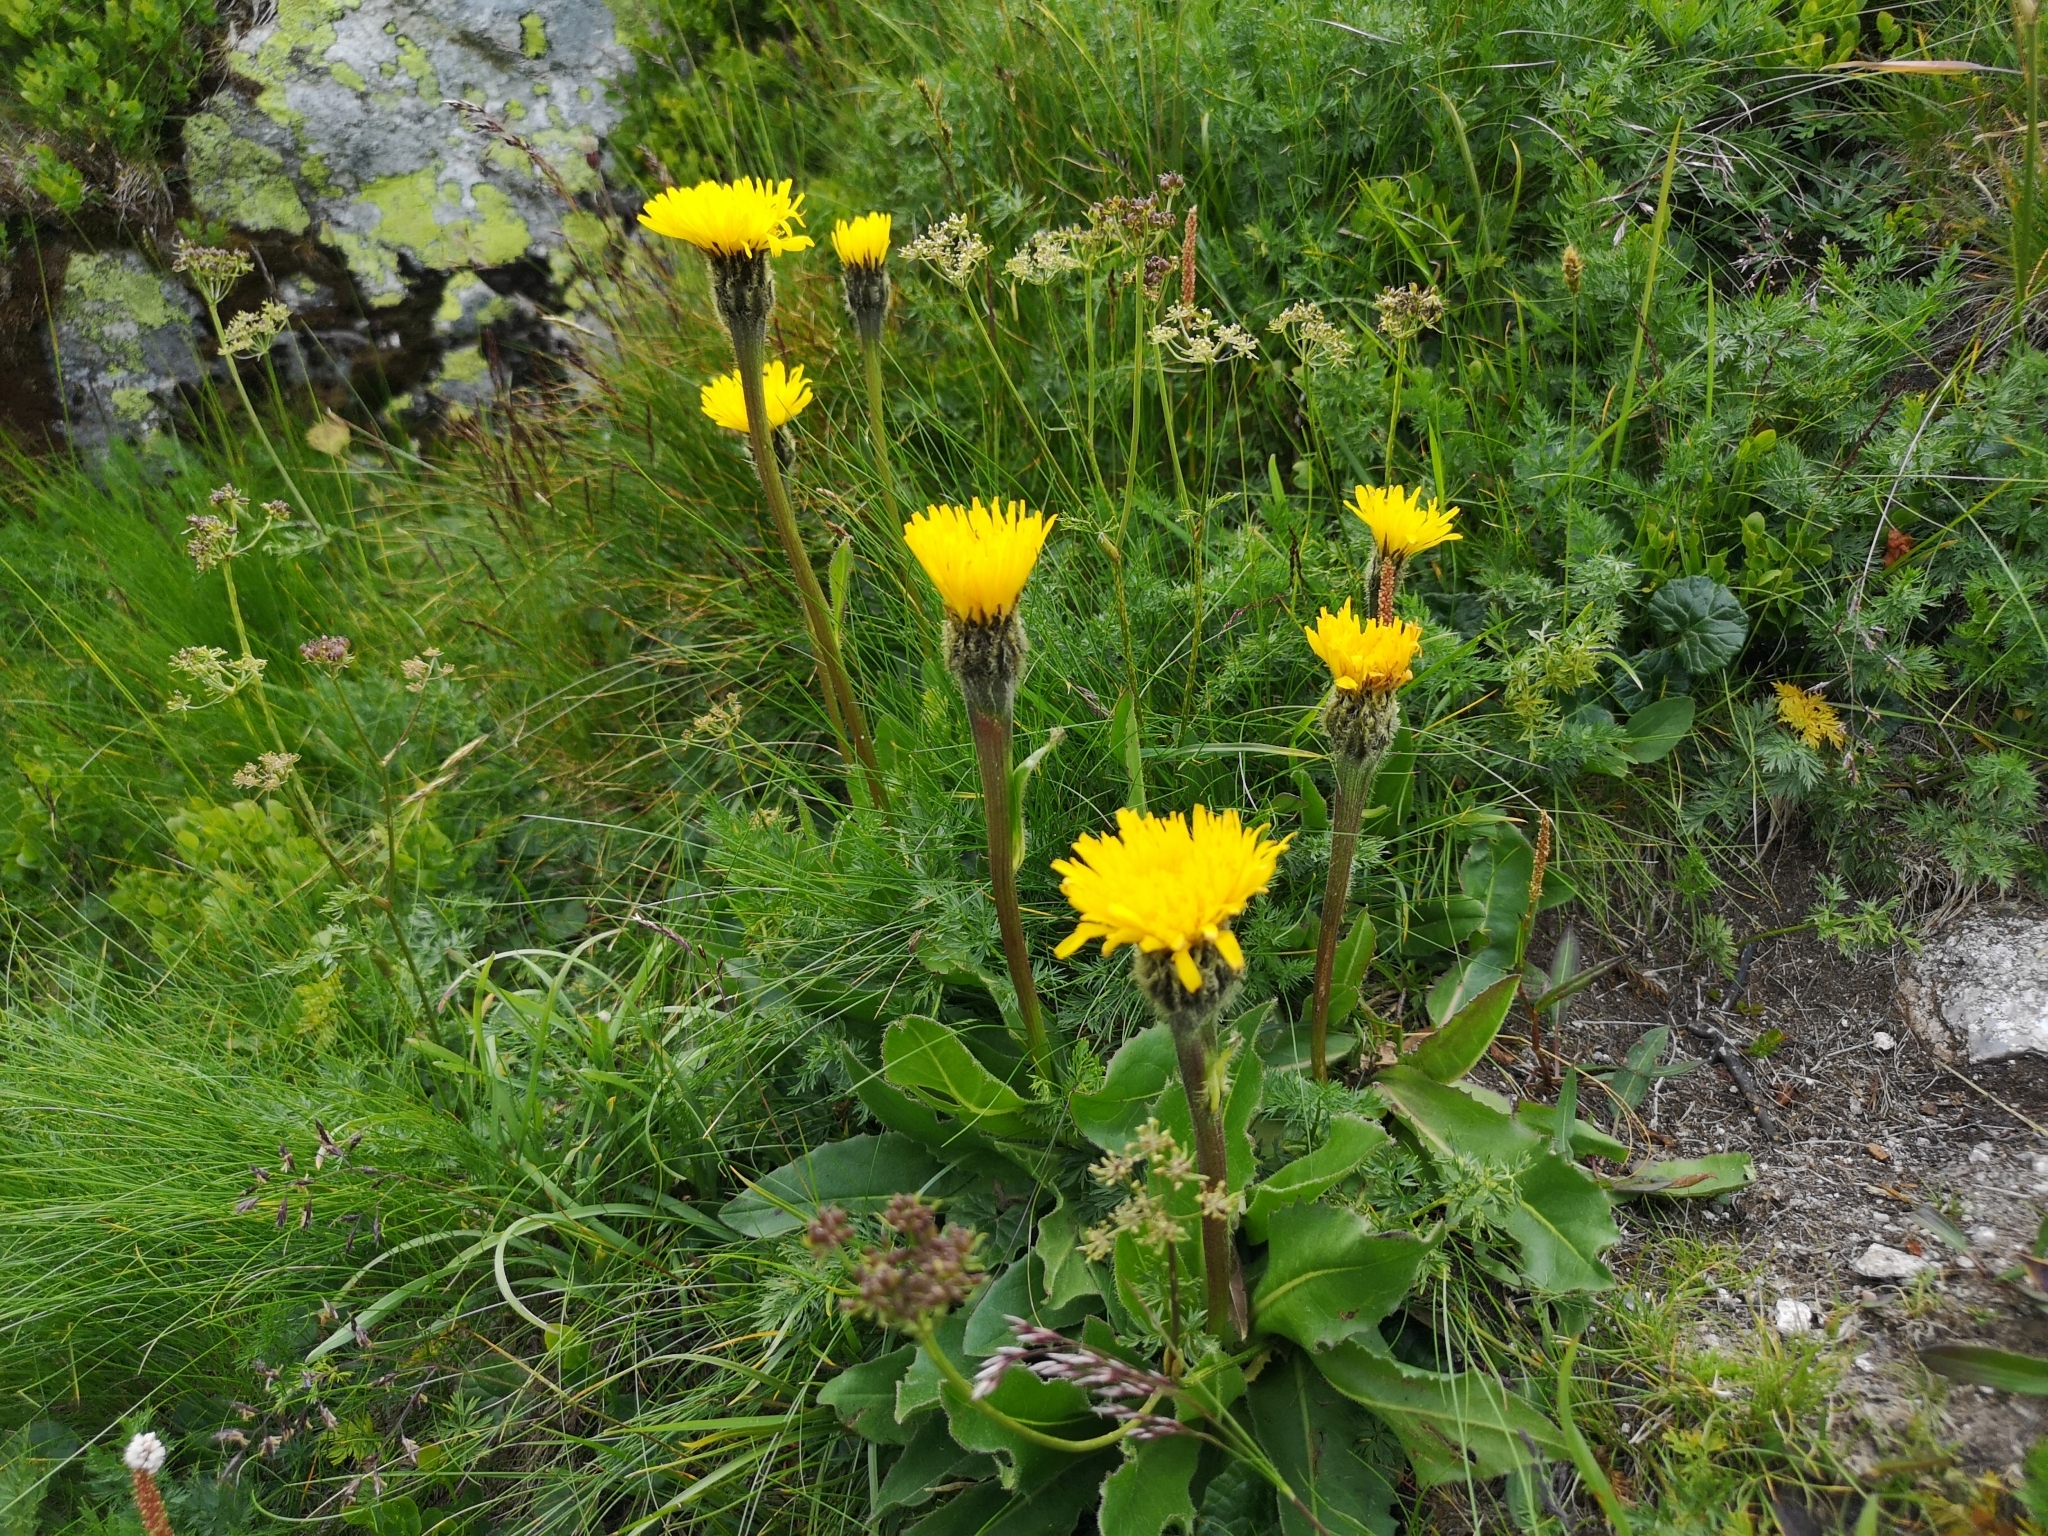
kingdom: Plantae
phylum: Tracheophyta
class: Magnoliopsida
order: Asterales
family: Asteraceae
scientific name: Asteraceae
